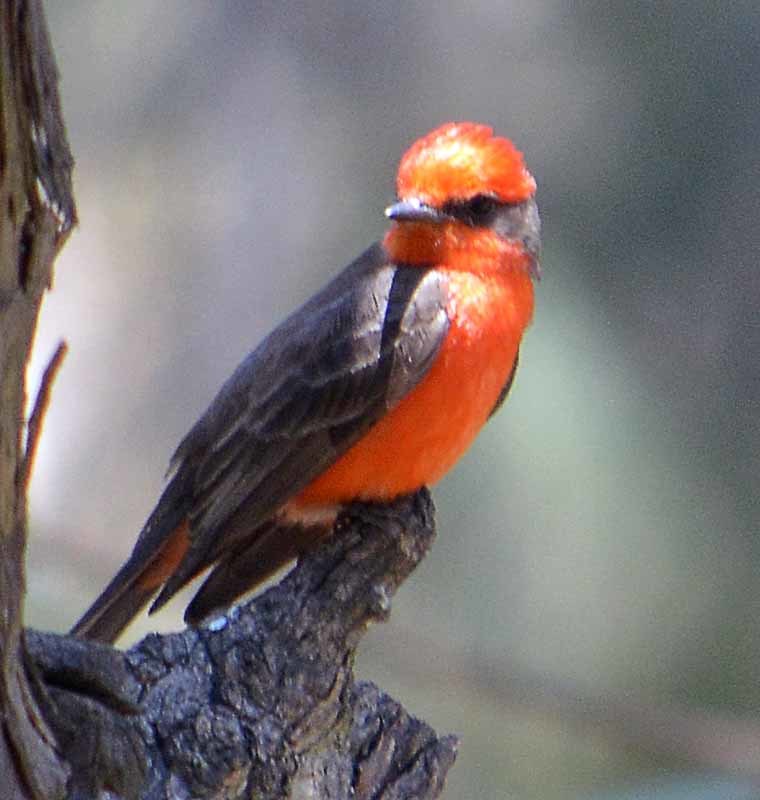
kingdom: Animalia
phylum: Chordata
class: Aves
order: Passeriformes
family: Tyrannidae
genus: Pyrocephalus
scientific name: Pyrocephalus rubinus
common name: Vermilion flycatcher
